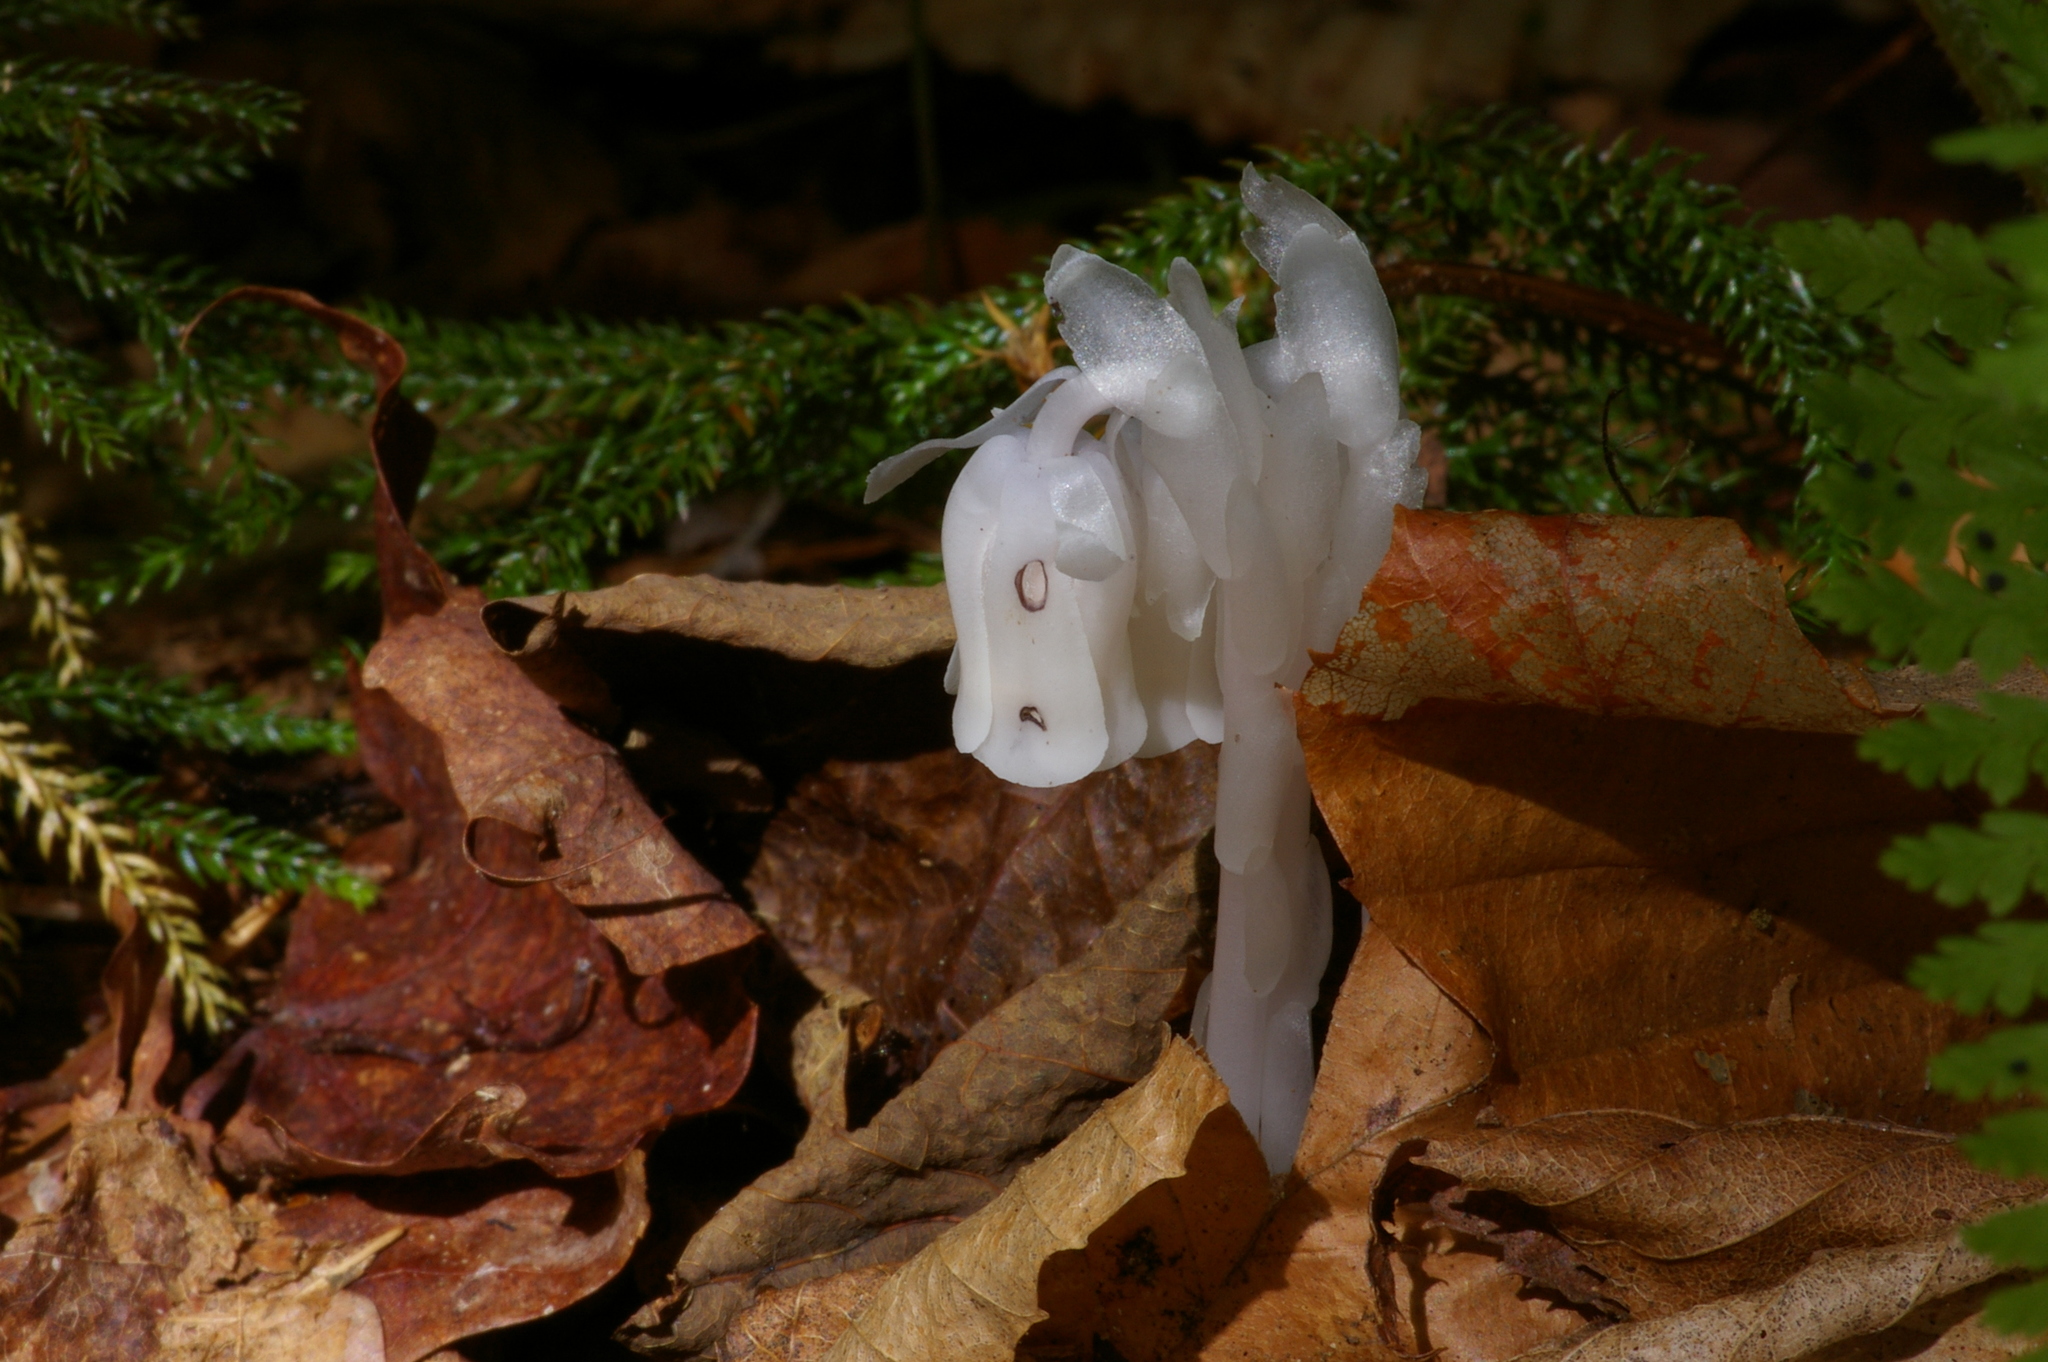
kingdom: Plantae
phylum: Tracheophyta
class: Magnoliopsida
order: Ericales
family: Ericaceae
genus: Monotropa
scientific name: Monotropa uniflora
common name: Convulsion root
